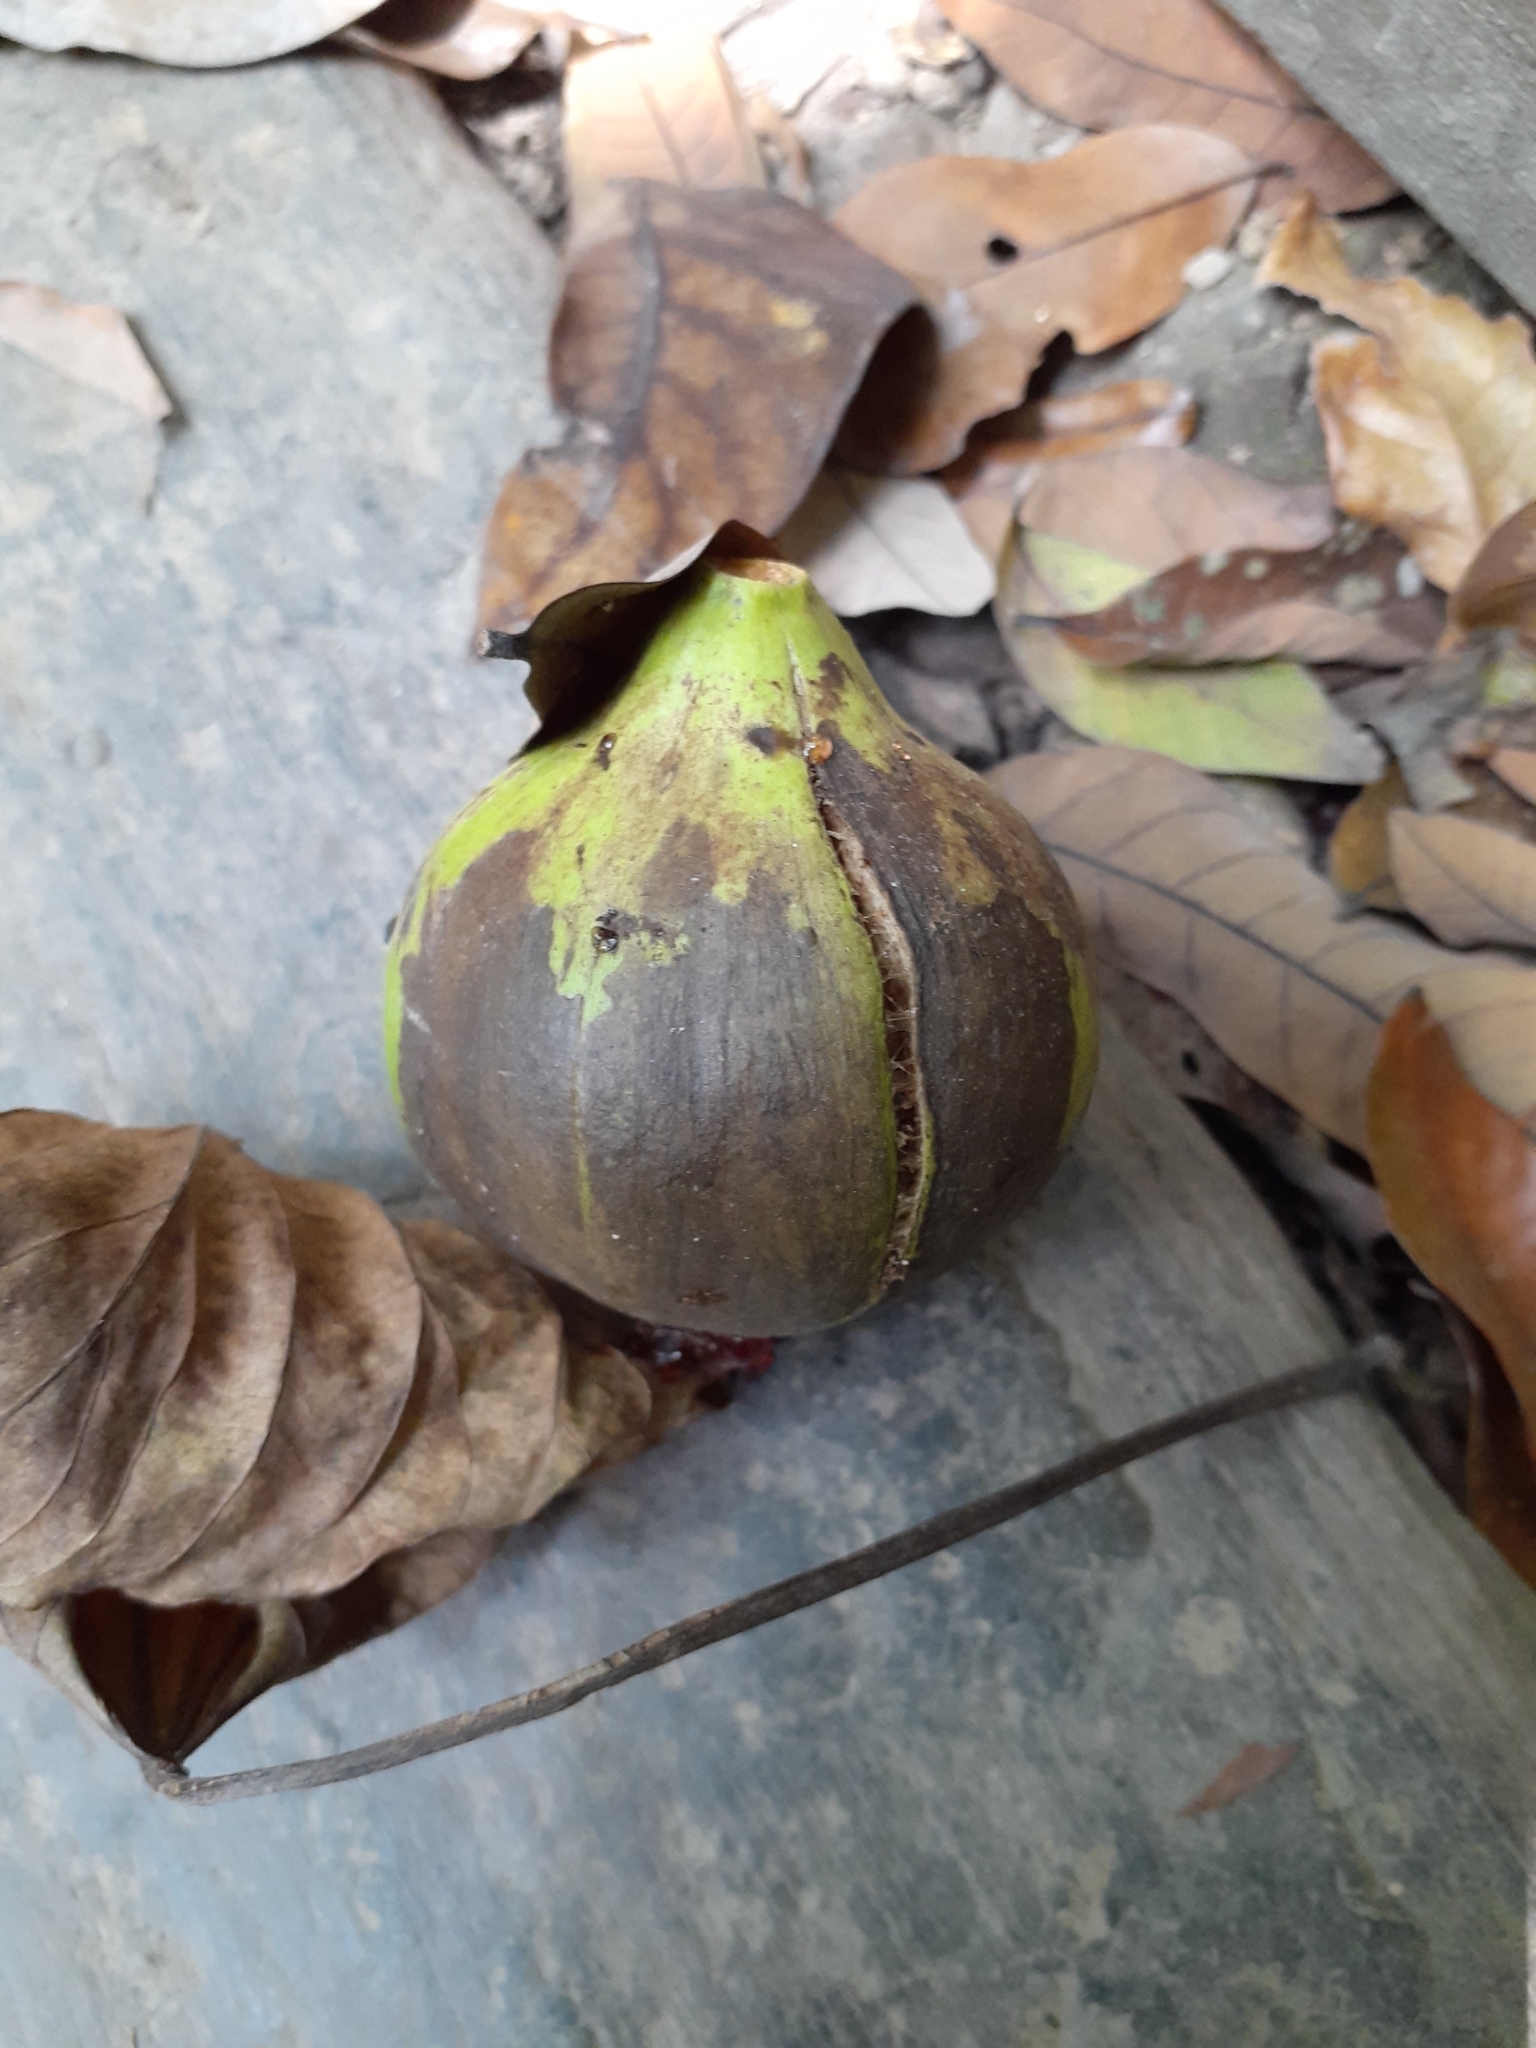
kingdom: Plantae
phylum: Tracheophyta
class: Magnoliopsida
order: Malpighiales
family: Euphorbiaceae
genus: Vernicia
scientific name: Vernicia fordii
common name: Tungoil tree
